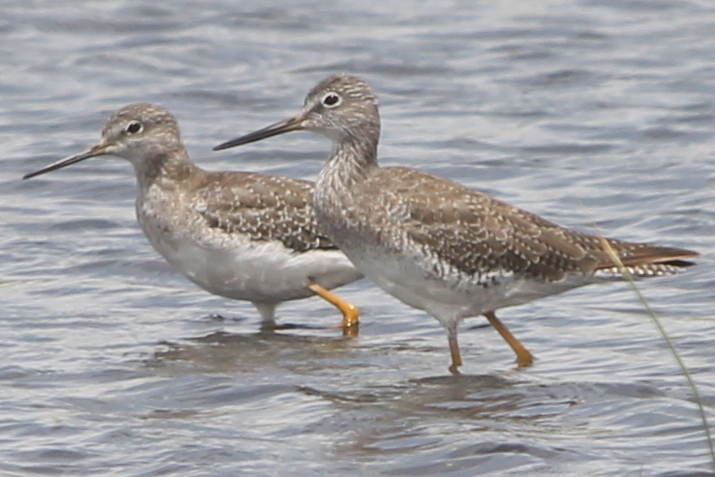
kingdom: Animalia
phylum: Chordata
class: Aves
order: Charadriiformes
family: Scolopacidae
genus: Tringa
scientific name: Tringa melanoleuca
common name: Greater yellowlegs
